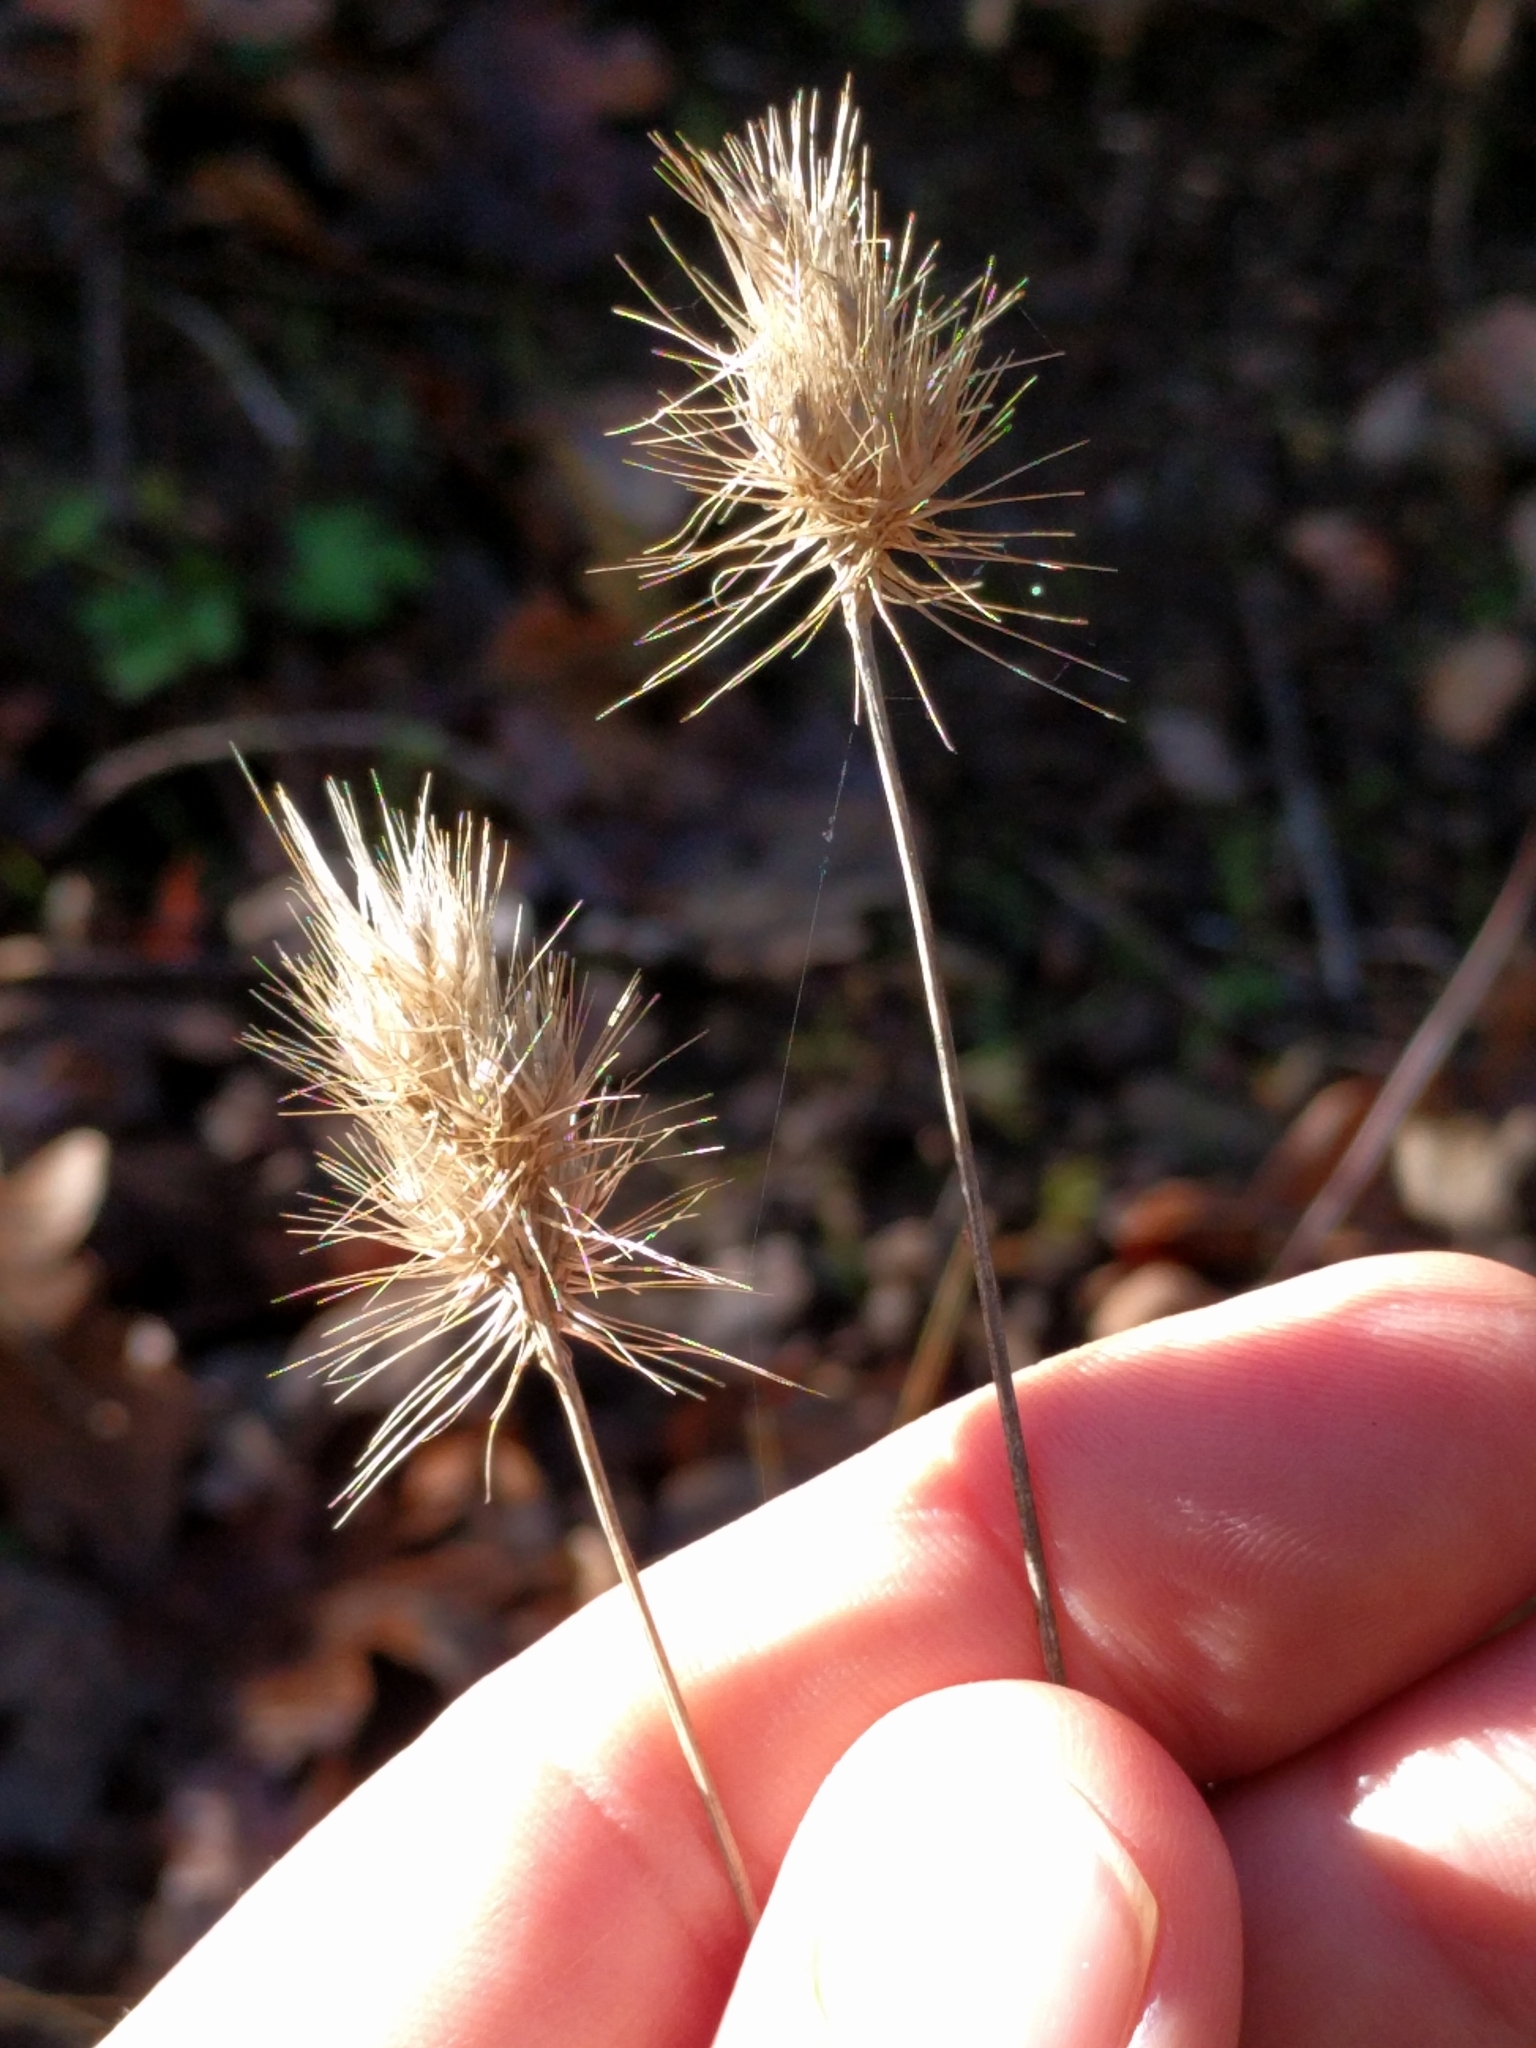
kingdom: Plantae
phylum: Tracheophyta
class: Liliopsida
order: Poales
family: Poaceae
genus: Cynosurus
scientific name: Cynosurus echinatus
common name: Rough dog's-tail
